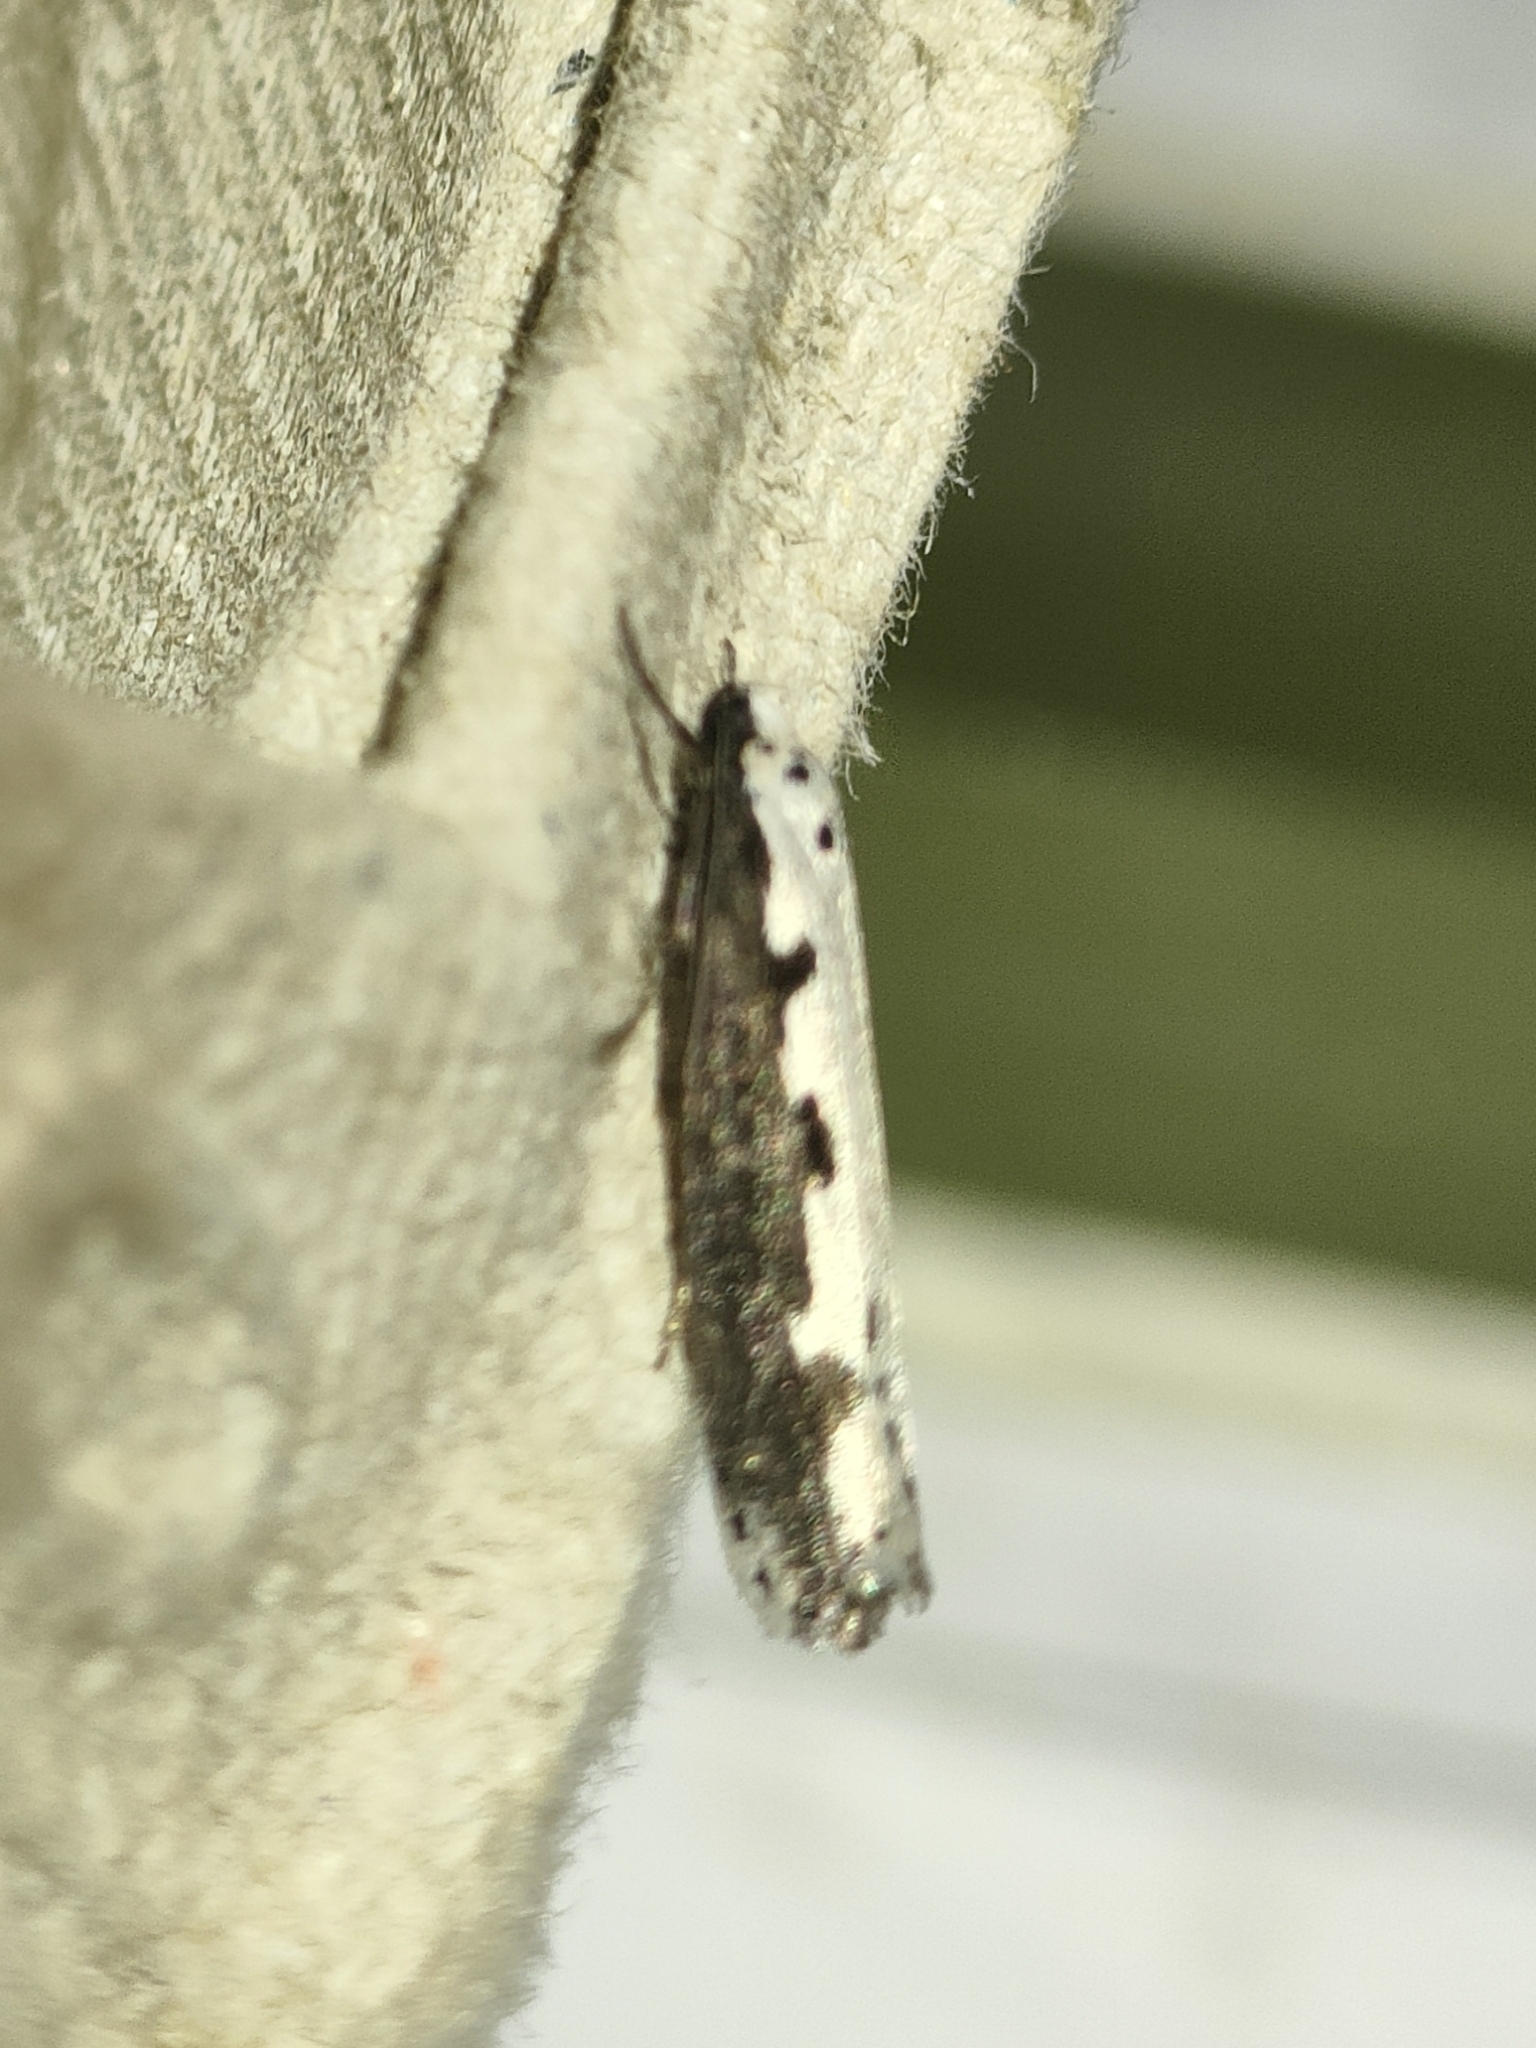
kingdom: Animalia
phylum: Arthropoda
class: Insecta
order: Lepidoptera
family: Ethmiidae
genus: Ethmia
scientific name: Ethmia bipunctella
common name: Bordered ermel
